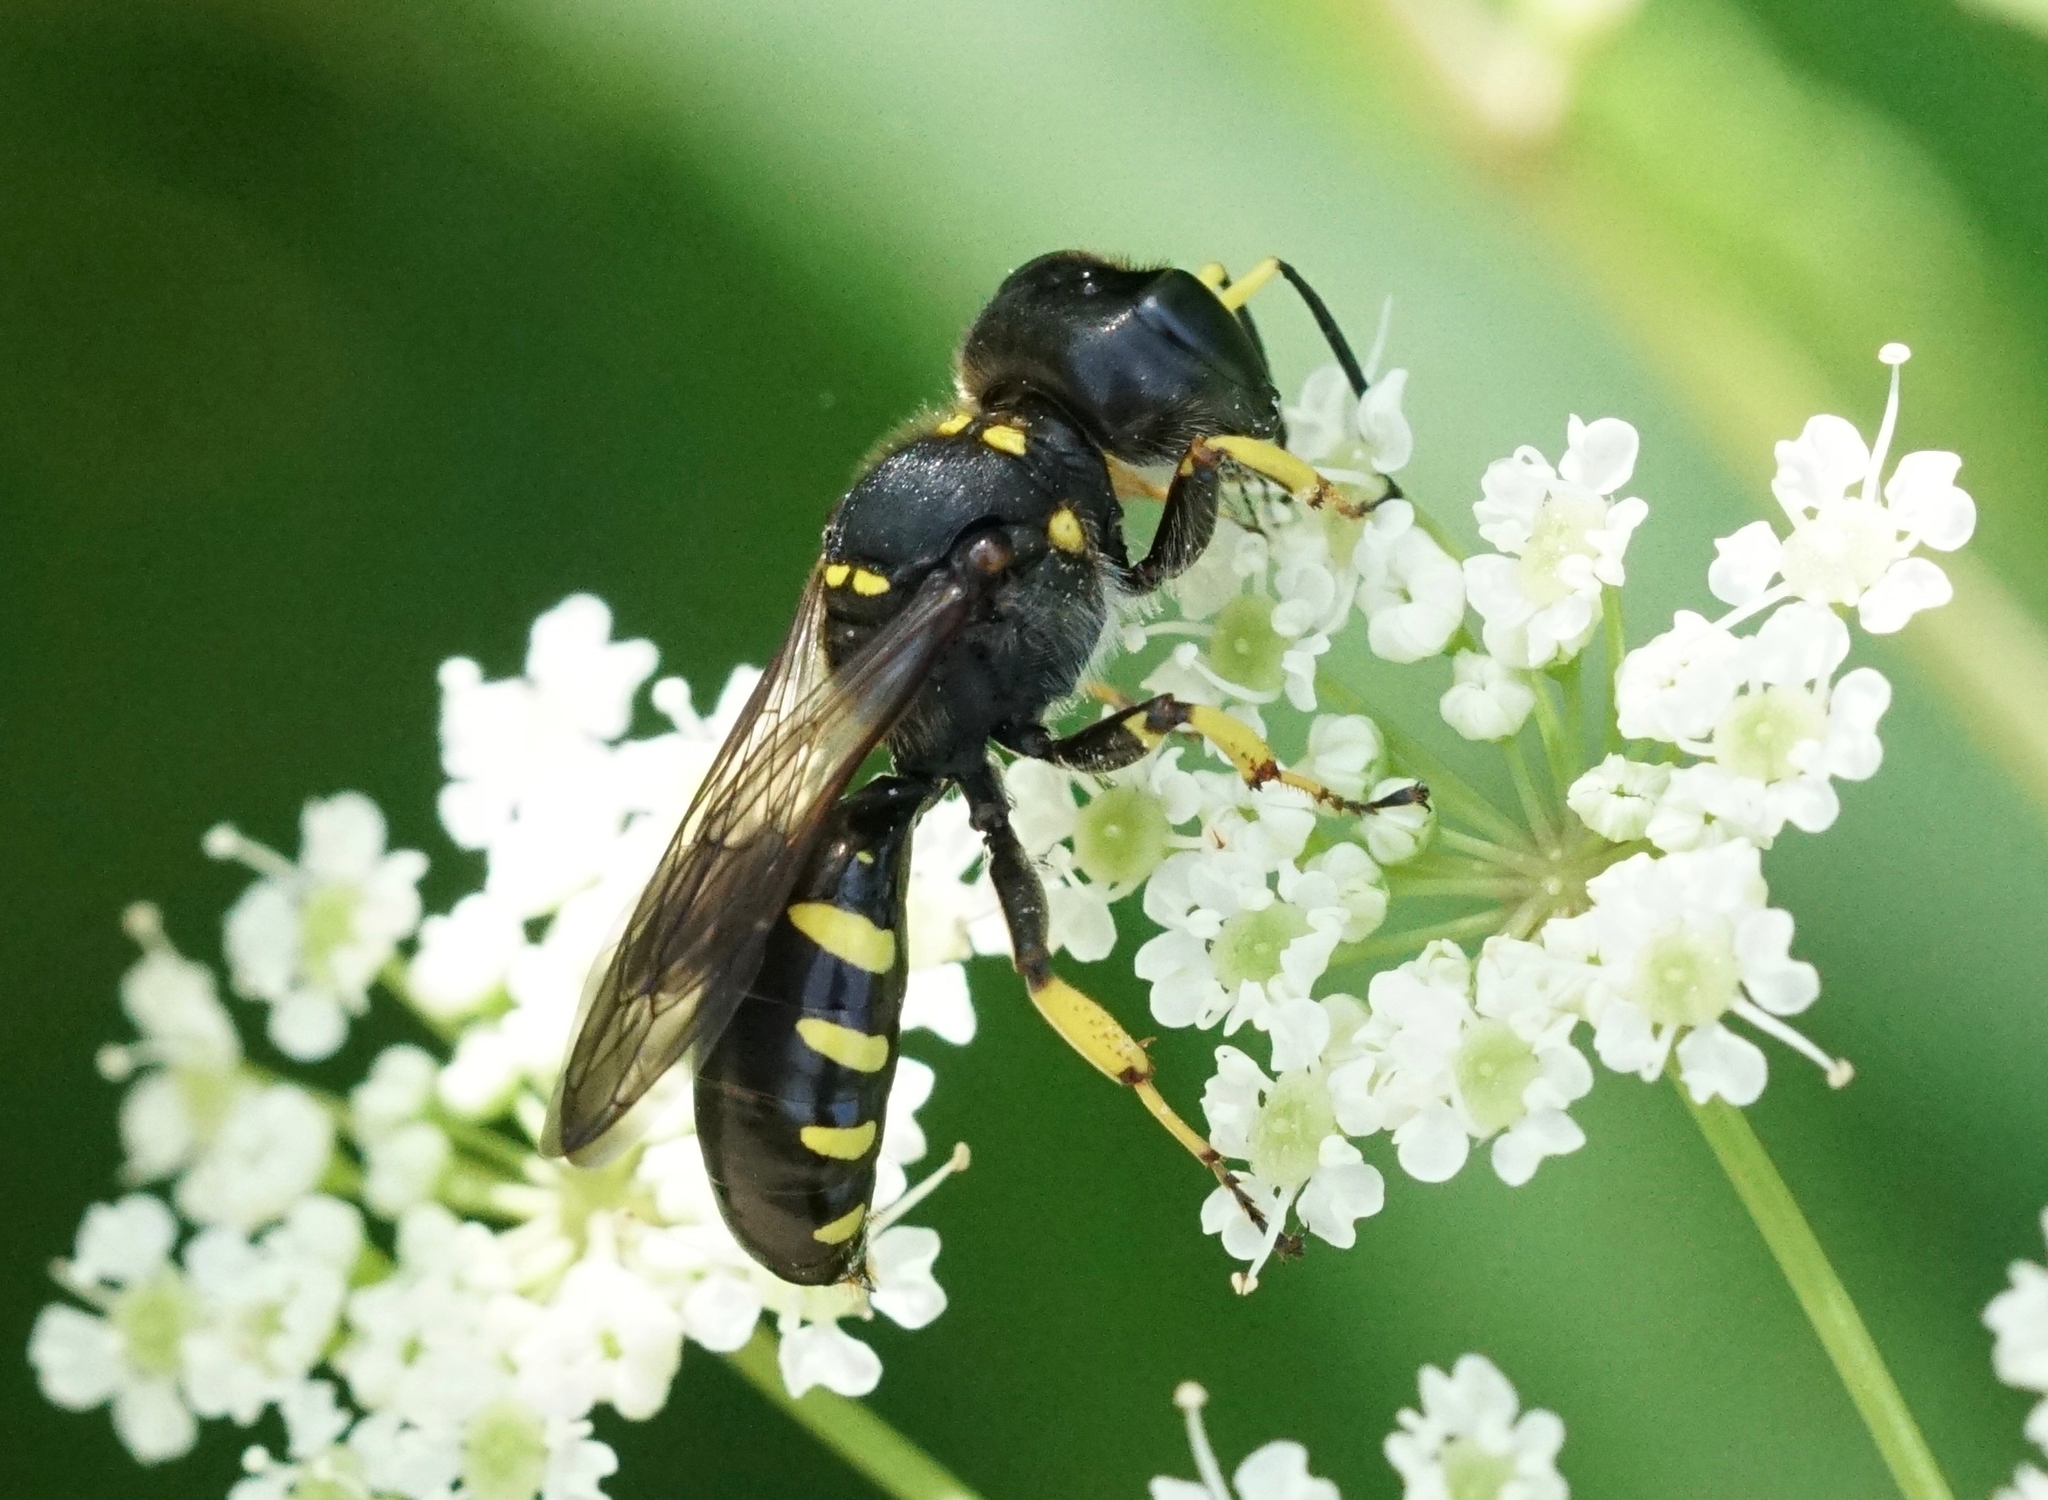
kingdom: Animalia
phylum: Arthropoda
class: Insecta
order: Hymenoptera
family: Crabronidae
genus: Ectemnius
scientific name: Ectemnius maculosus
